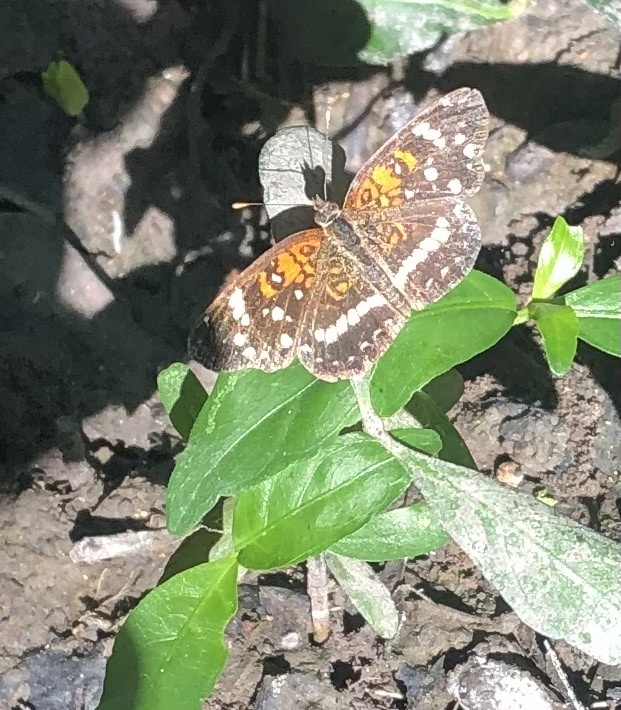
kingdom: Animalia
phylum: Arthropoda
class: Insecta
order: Lepidoptera
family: Nymphalidae
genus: Anthanassa
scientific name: Anthanassa texana
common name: Texan crescent
